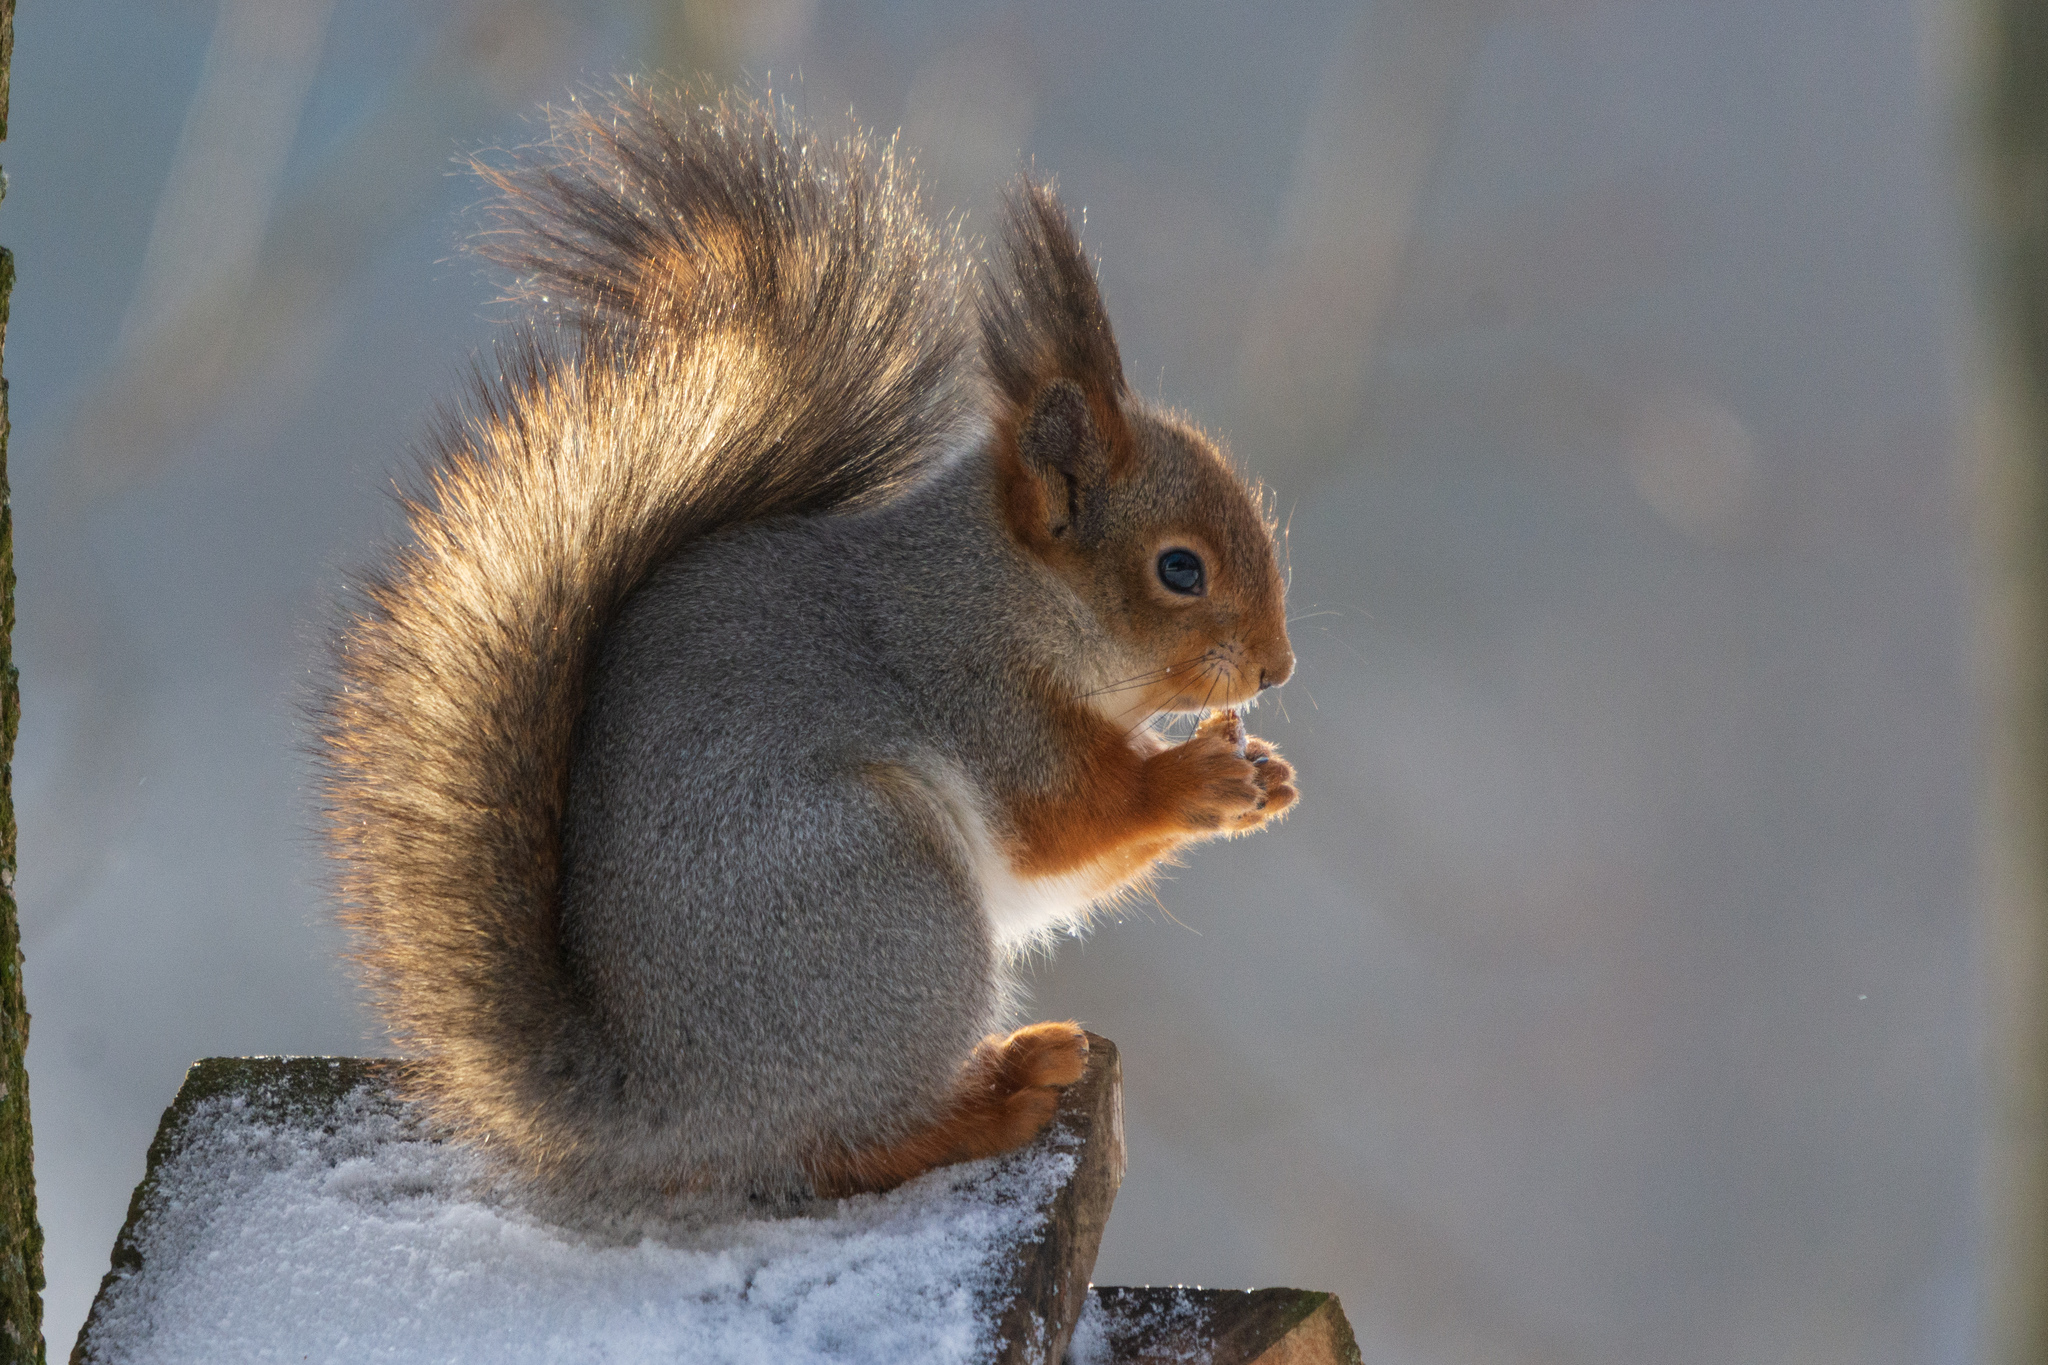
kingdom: Animalia
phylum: Chordata
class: Mammalia
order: Rodentia
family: Sciuridae
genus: Sciurus
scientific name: Sciurus vulgaris
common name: Eurasian red squirrel
